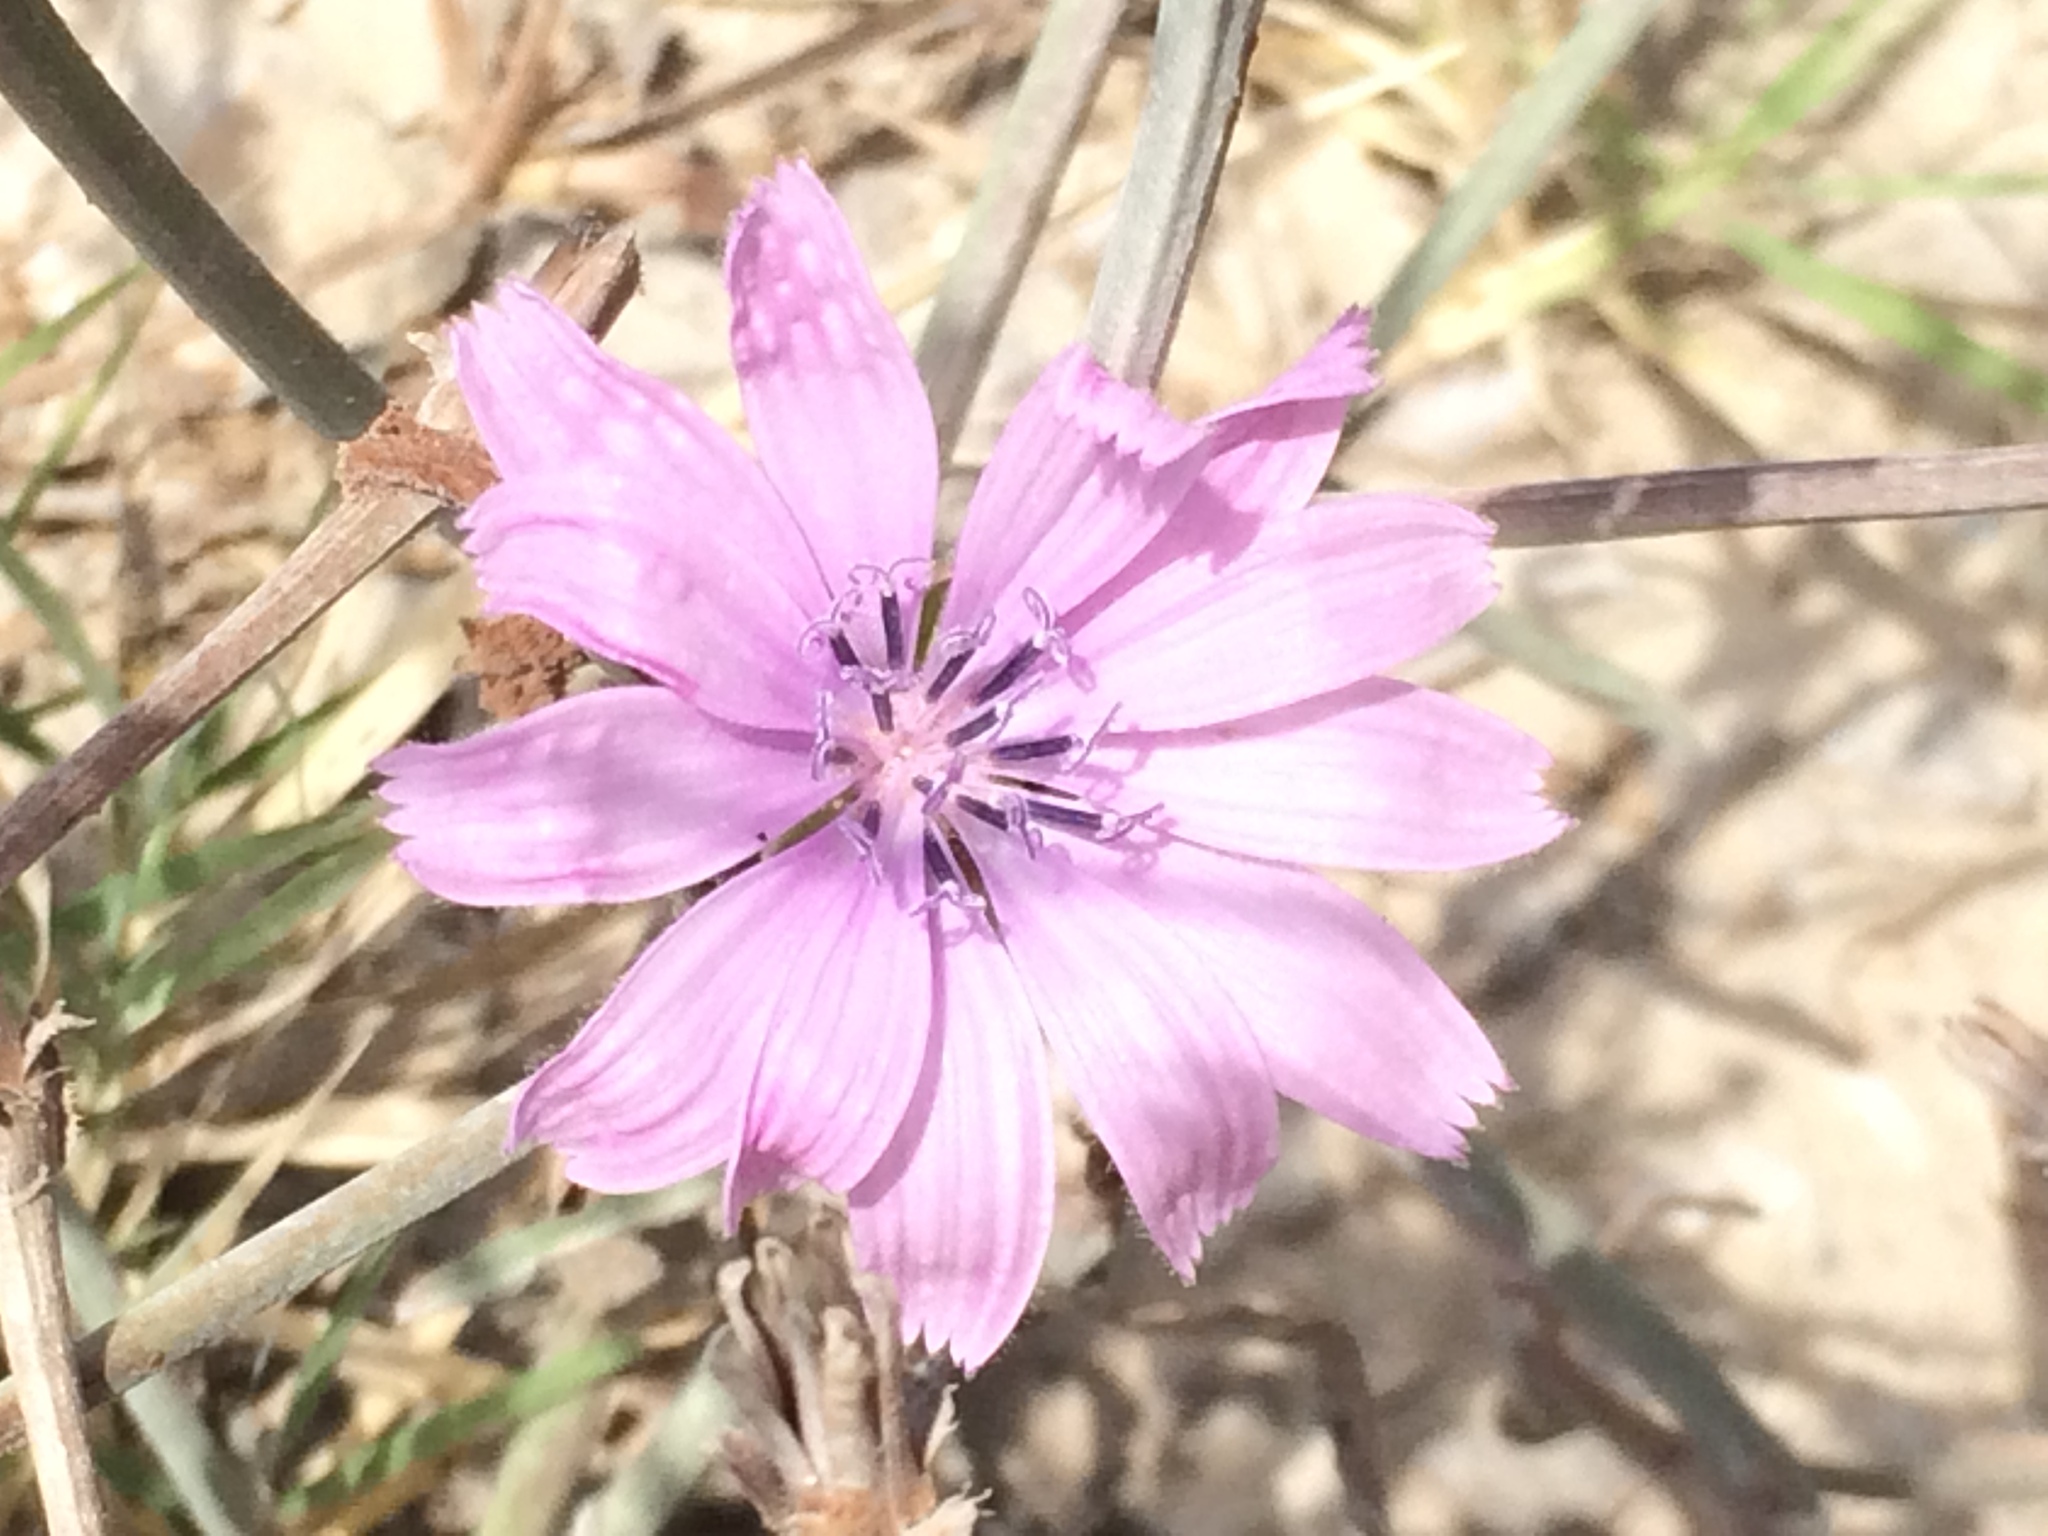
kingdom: Plantae
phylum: Tracheophyta
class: Magnoliopsida
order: Asterales
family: Asteraceae
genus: Cichorium
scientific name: Cichorium intybus
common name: Chicory
